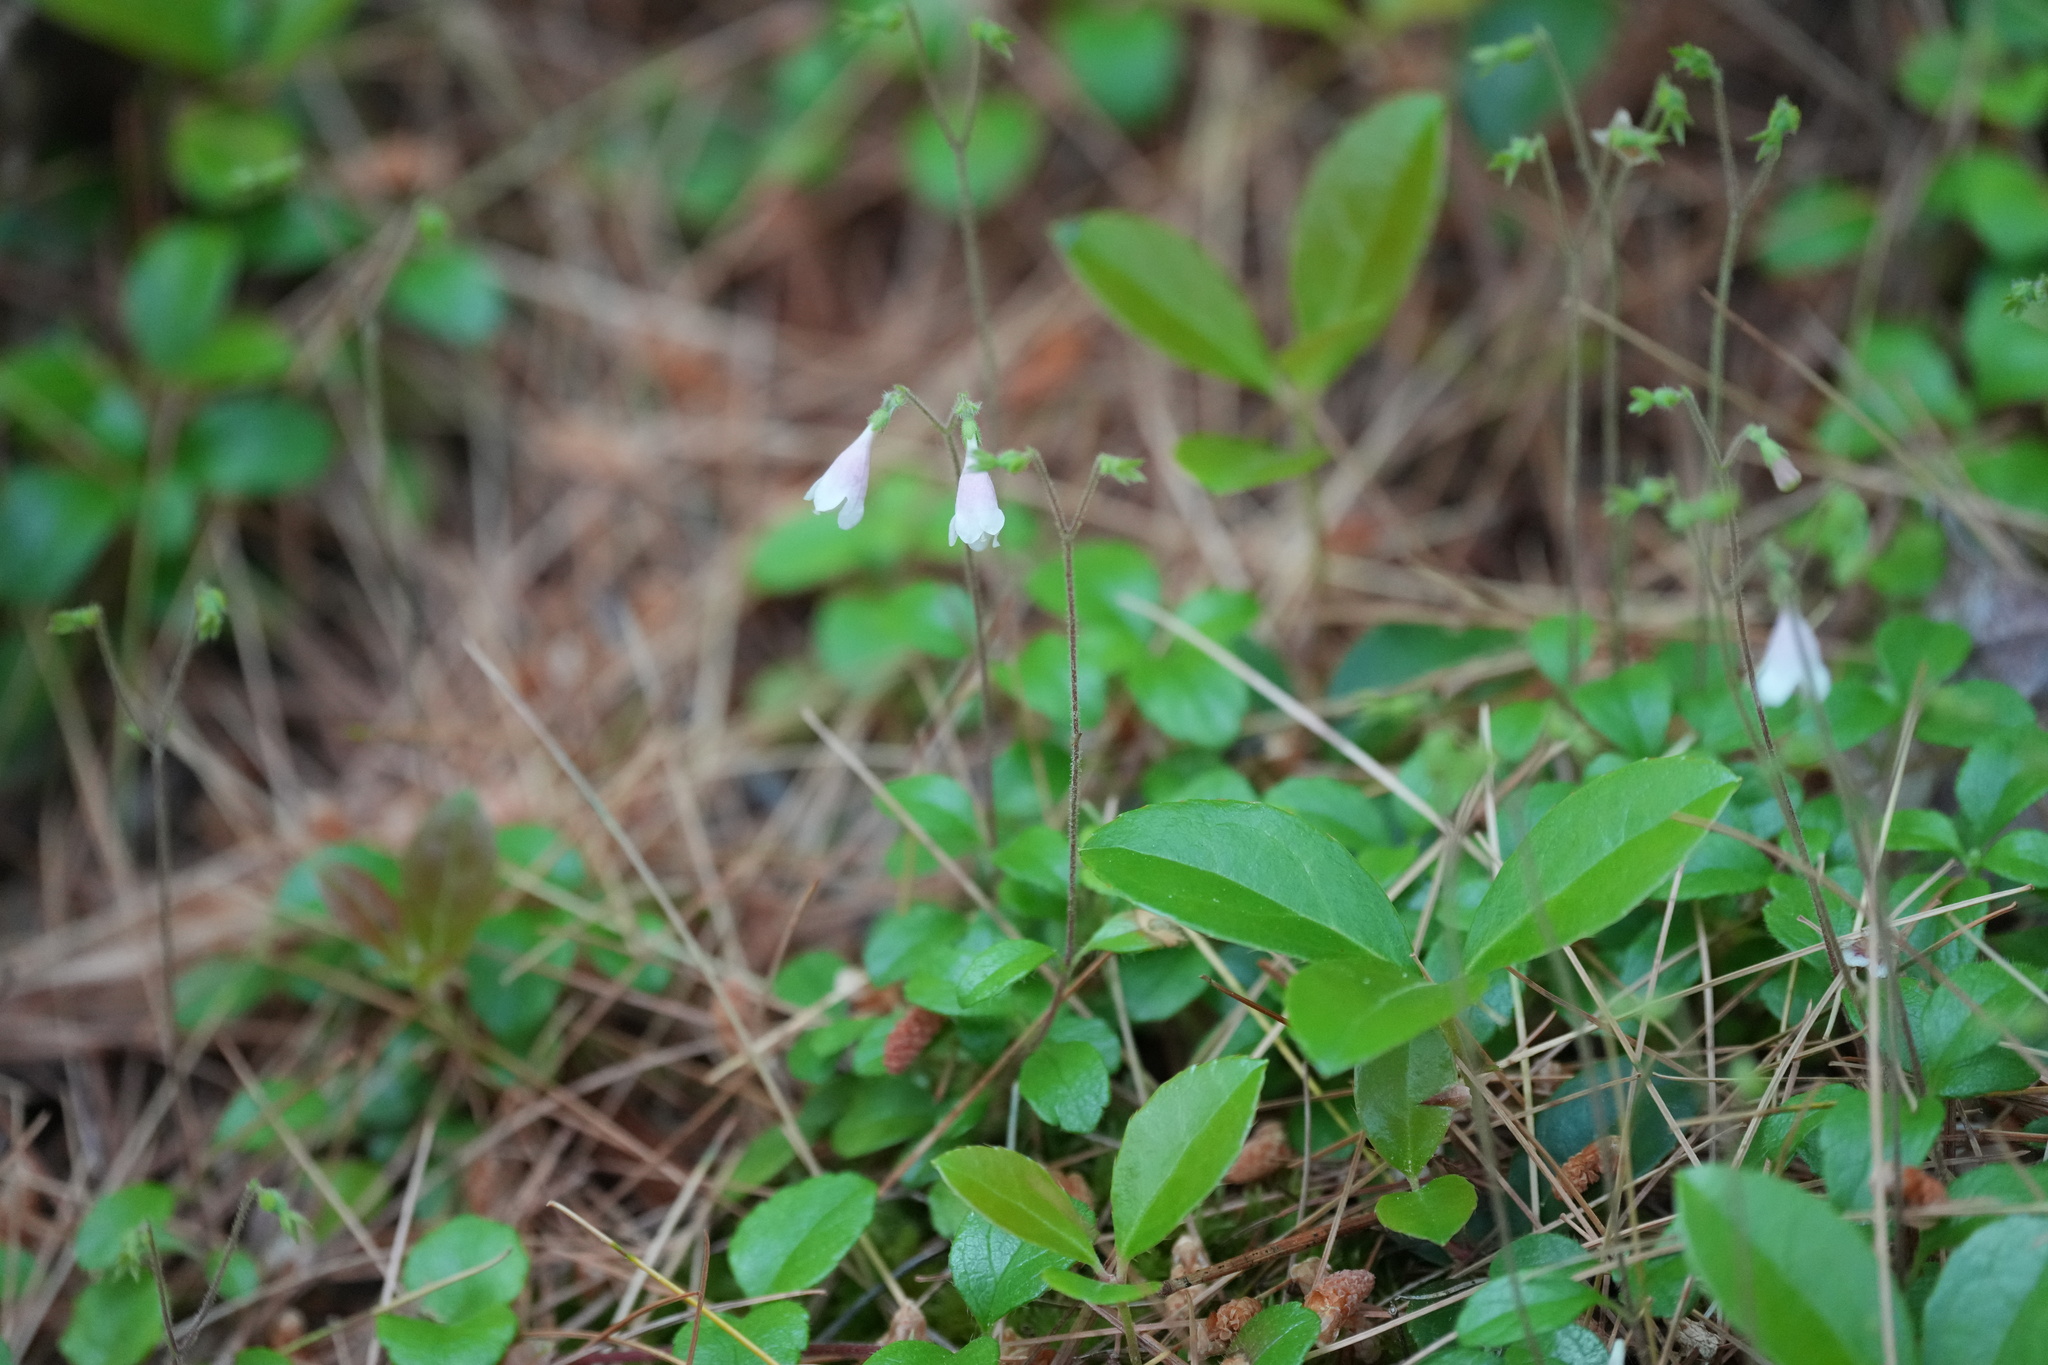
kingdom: Plantae
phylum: Tracheophyta
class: Magnoliopsida
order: Dipsacales
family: Caprifoliaceae
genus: Linnaea
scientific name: Linnaea borealis
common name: Twinflower
